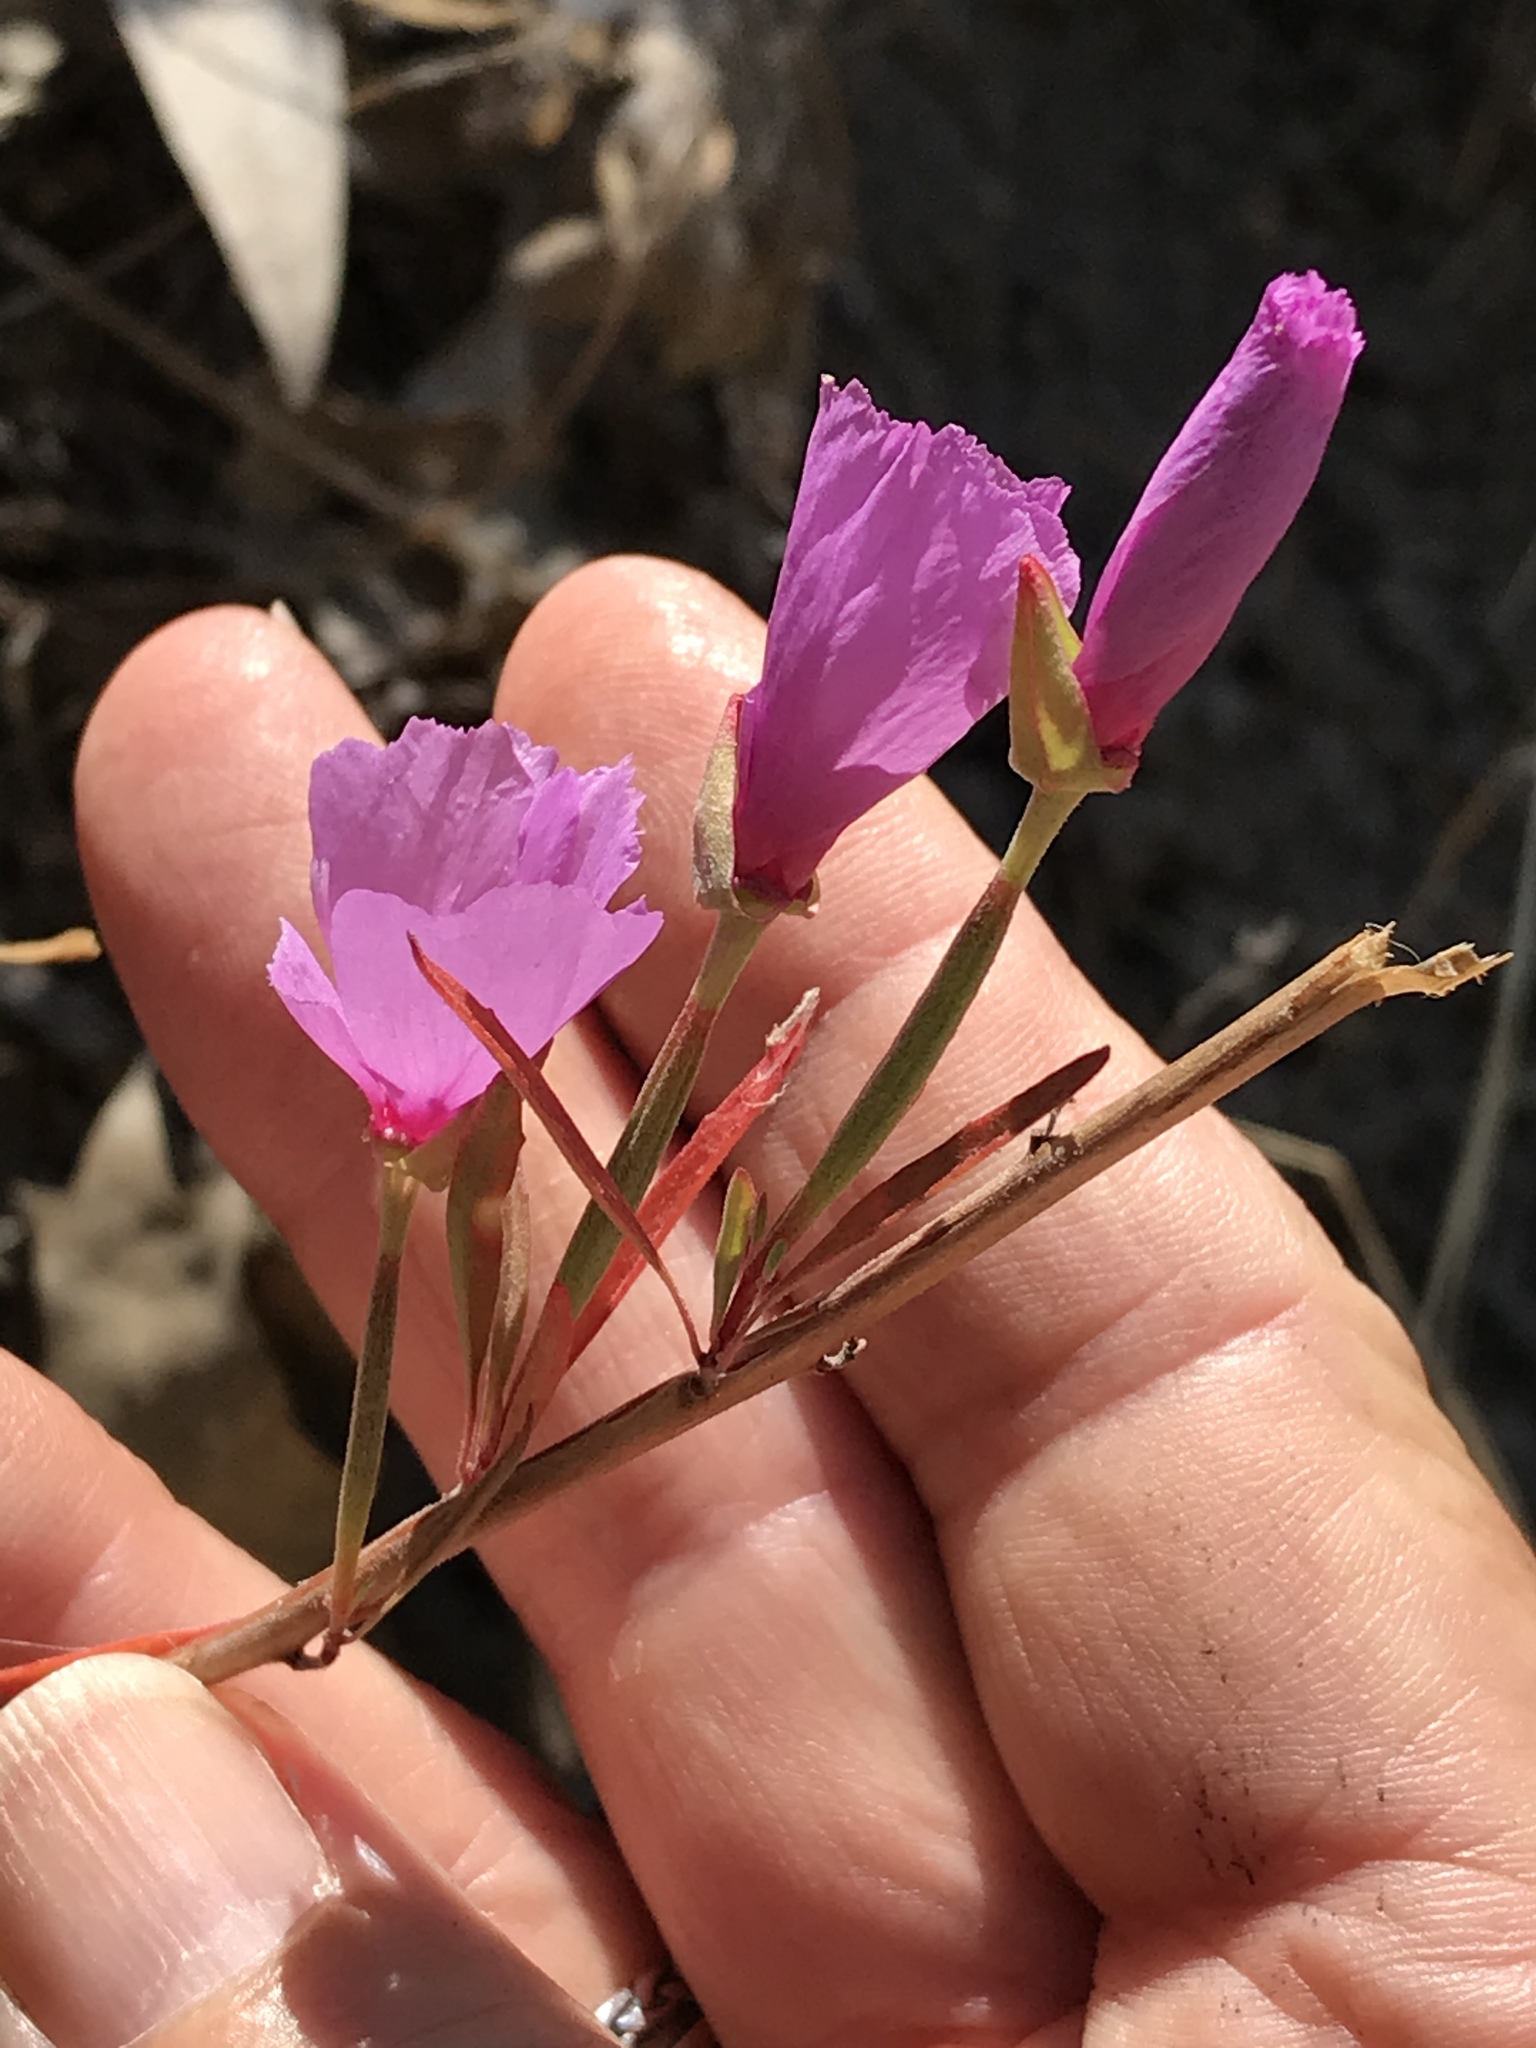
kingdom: Plantae
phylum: Tracheophyta
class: Magnoliopsida
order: Myrtales
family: Onagraceae
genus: Clarkia
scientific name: Clarkia rubicunda
